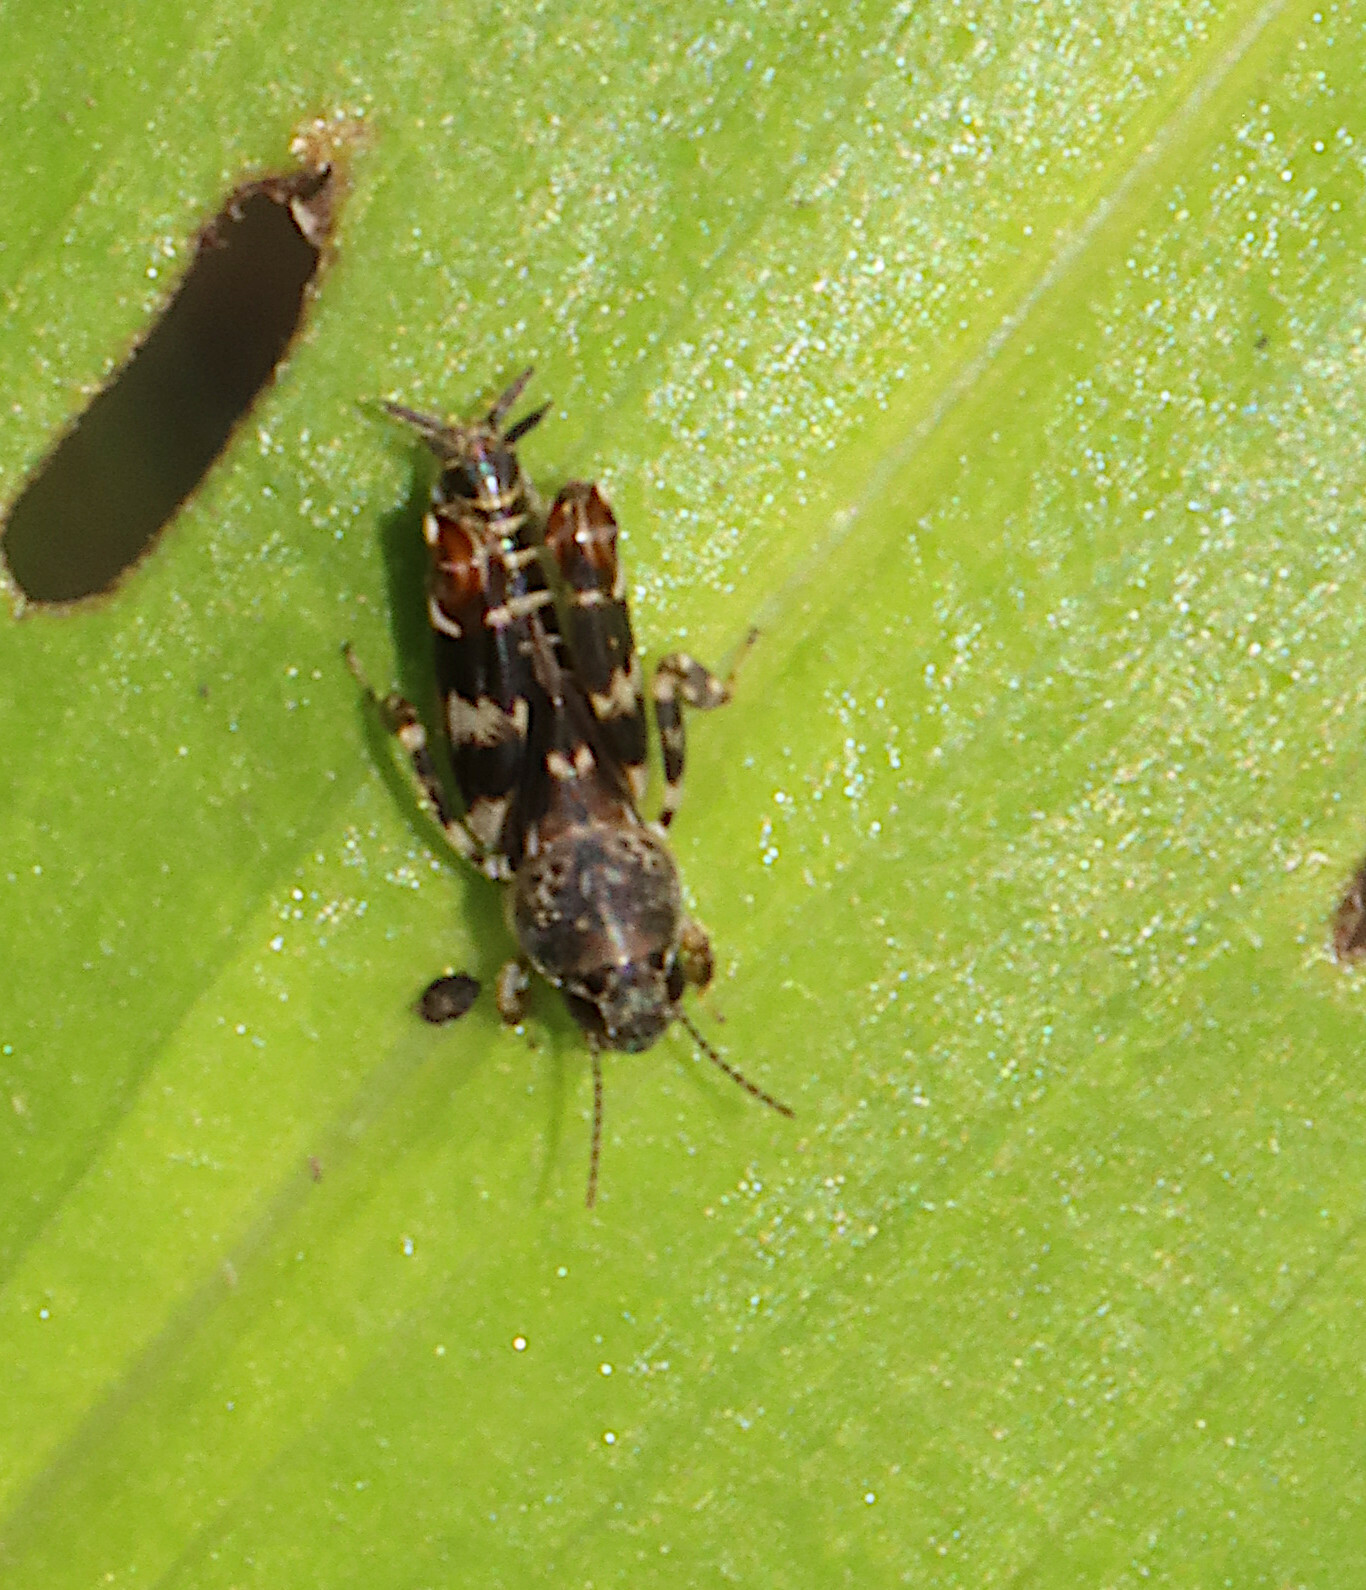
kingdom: Animalia
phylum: Arthropoda
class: Insecta
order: Orthoptera
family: Tridactylidae
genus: Ellipes
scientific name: Ellipes minuta
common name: Minute pygmy locust
